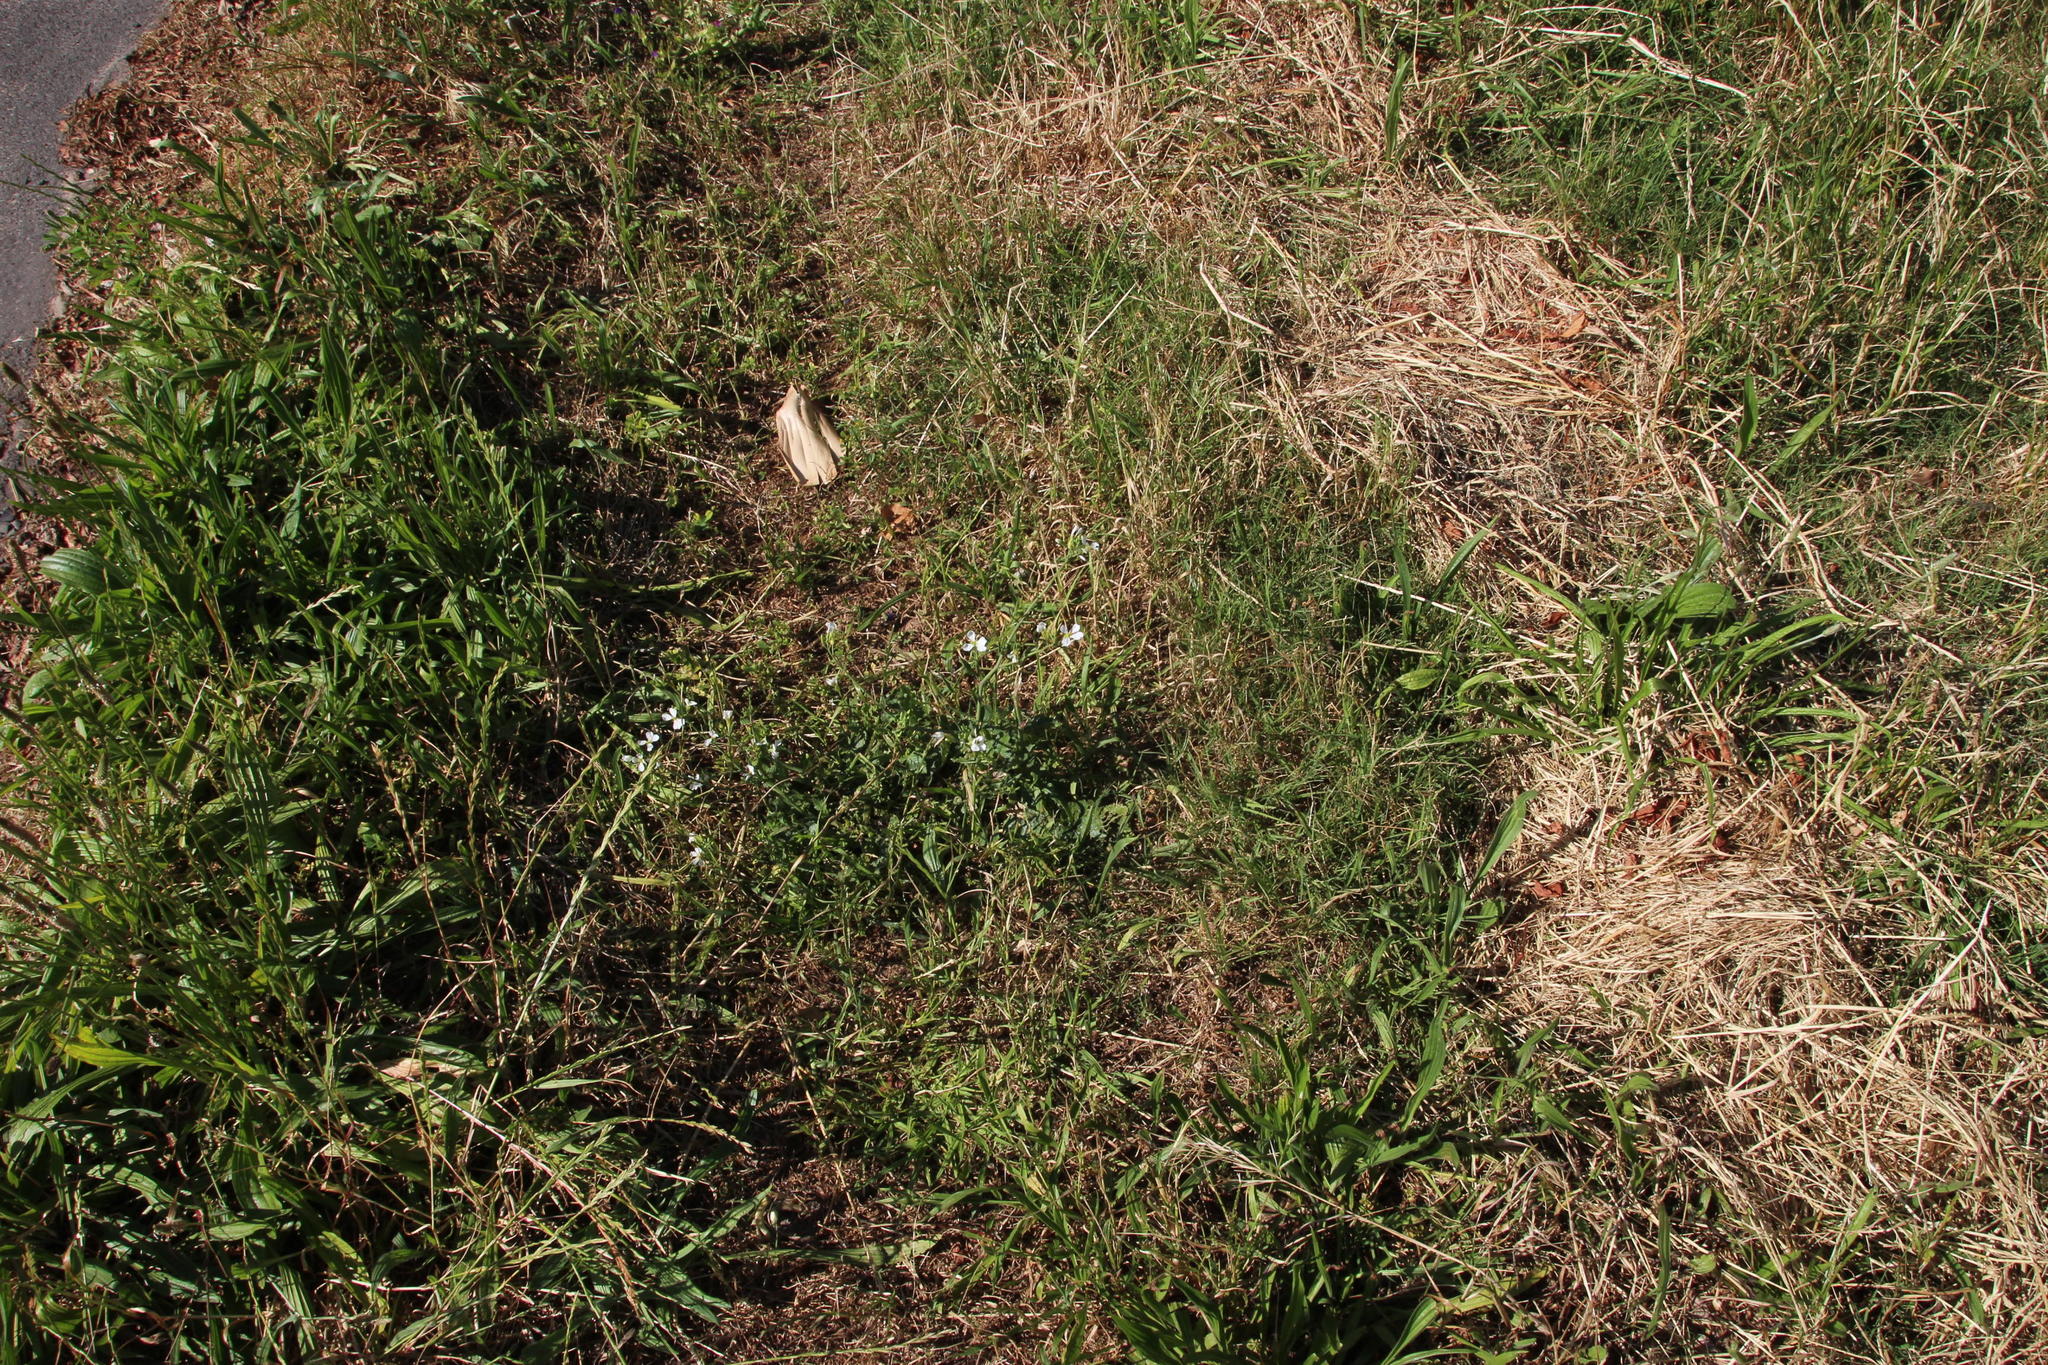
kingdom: Plantae
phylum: Tracheophyta
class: Magnoliopsida
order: Brassicales
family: Brassicaceae
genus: Raphanus
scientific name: Raphanus raphanistrum
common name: Wild radish
